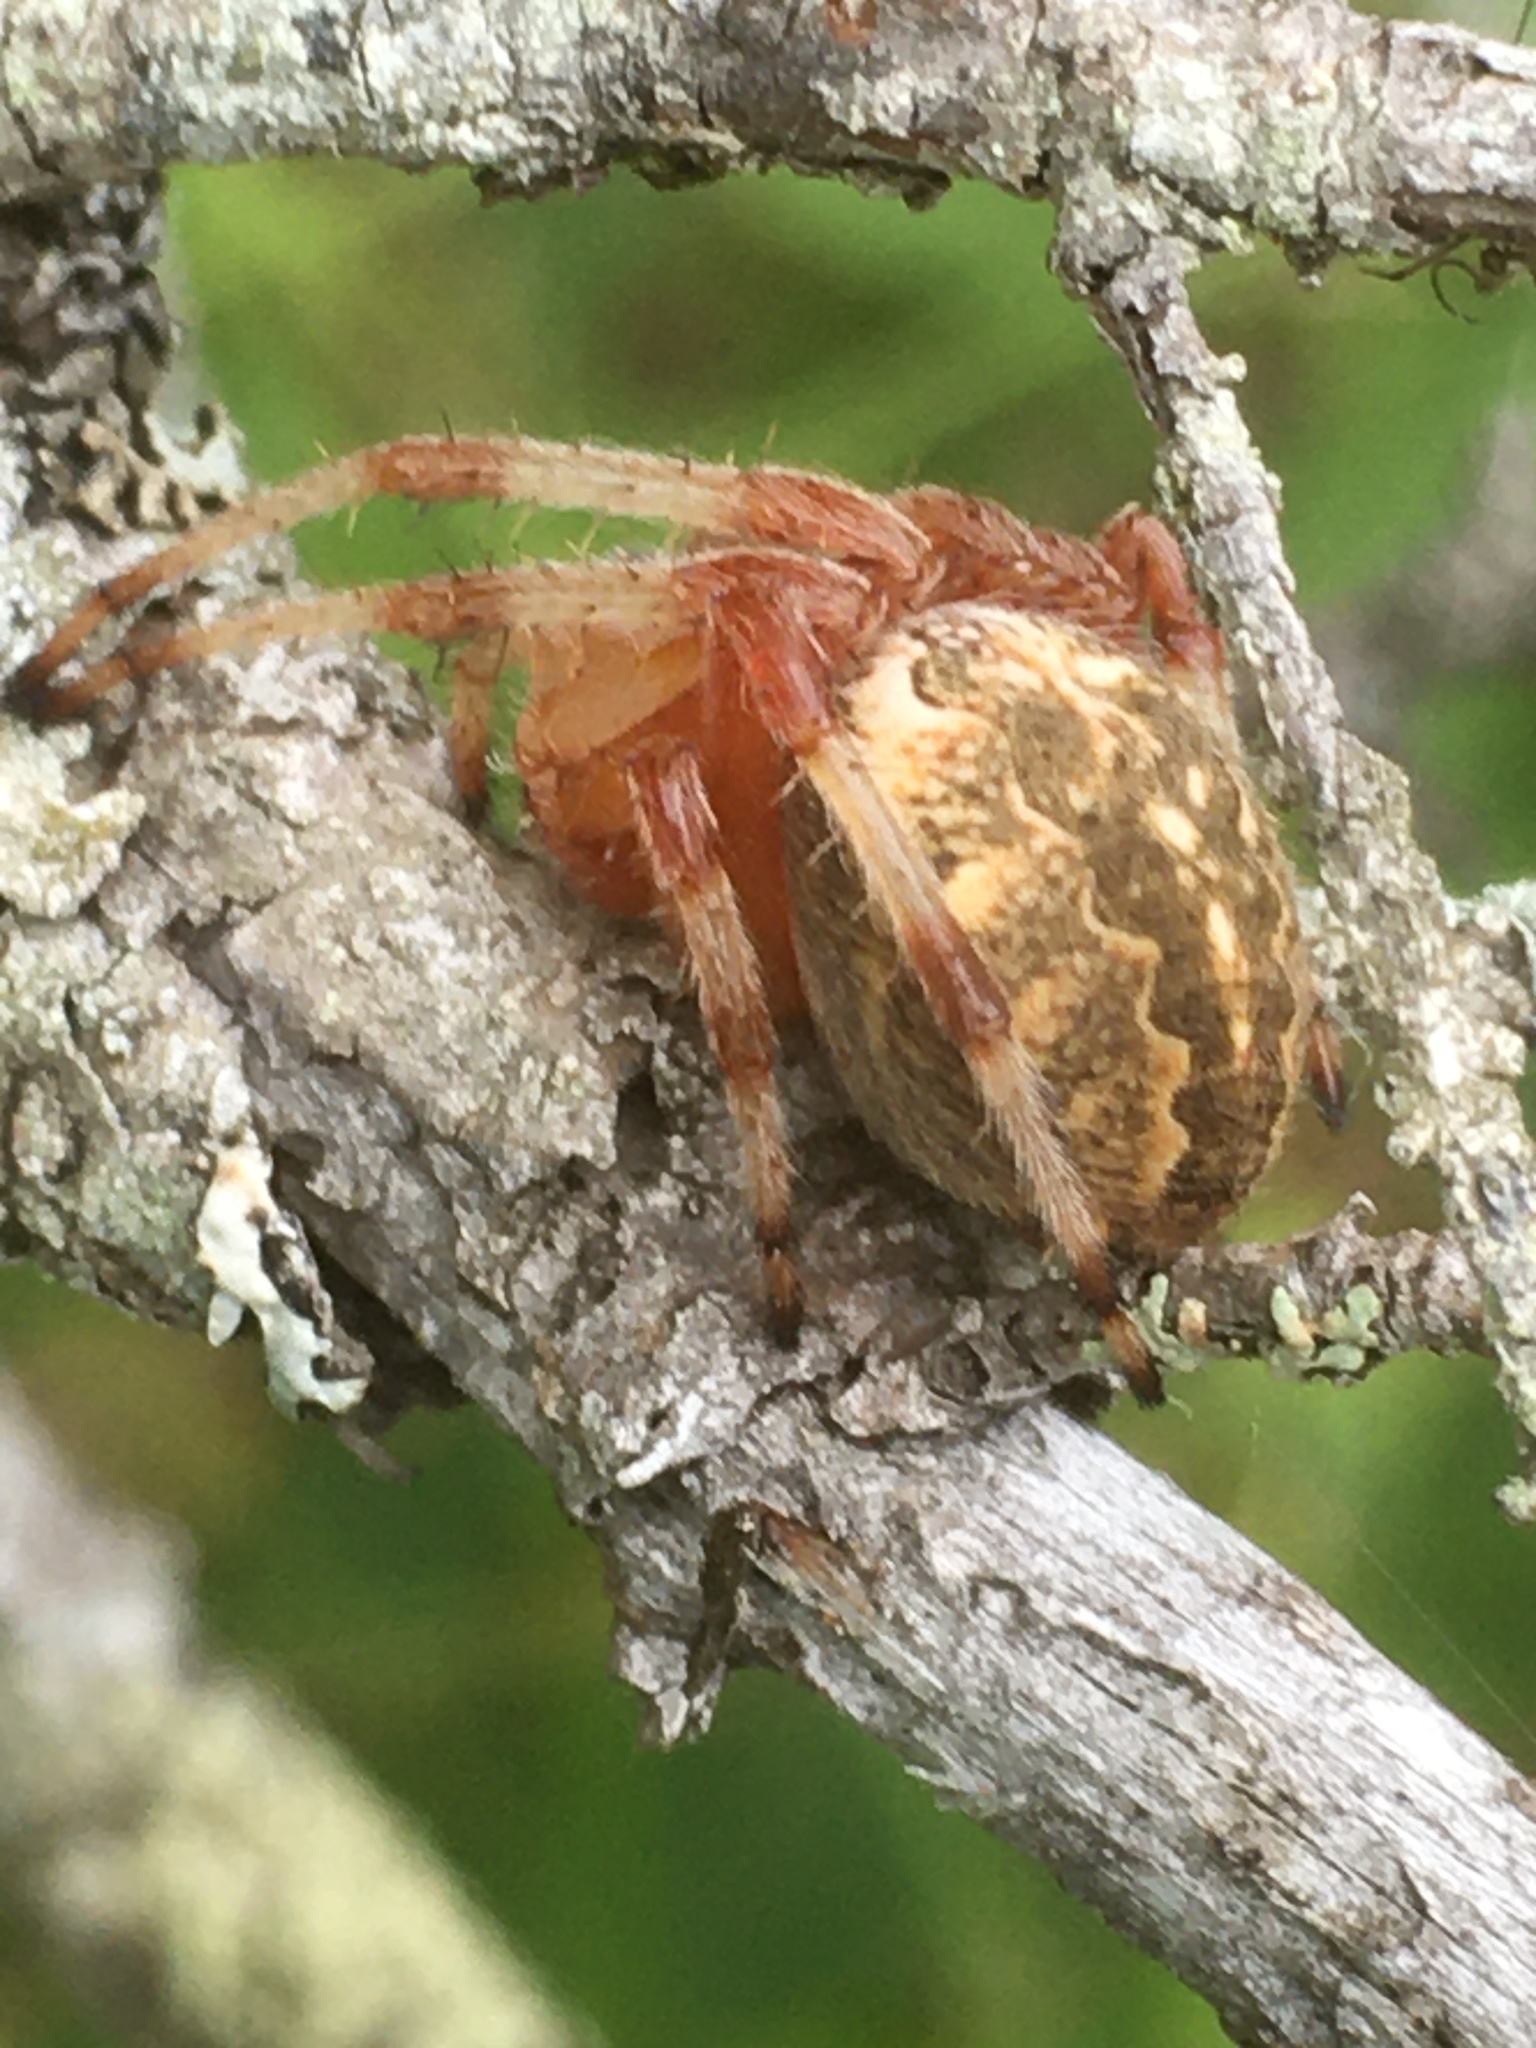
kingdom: Animalia
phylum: Arthropoda
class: Arachnida
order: Araneae
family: Araneidae
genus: Araneus
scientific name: Araneus marmoreus
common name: Marbled orbweaver
